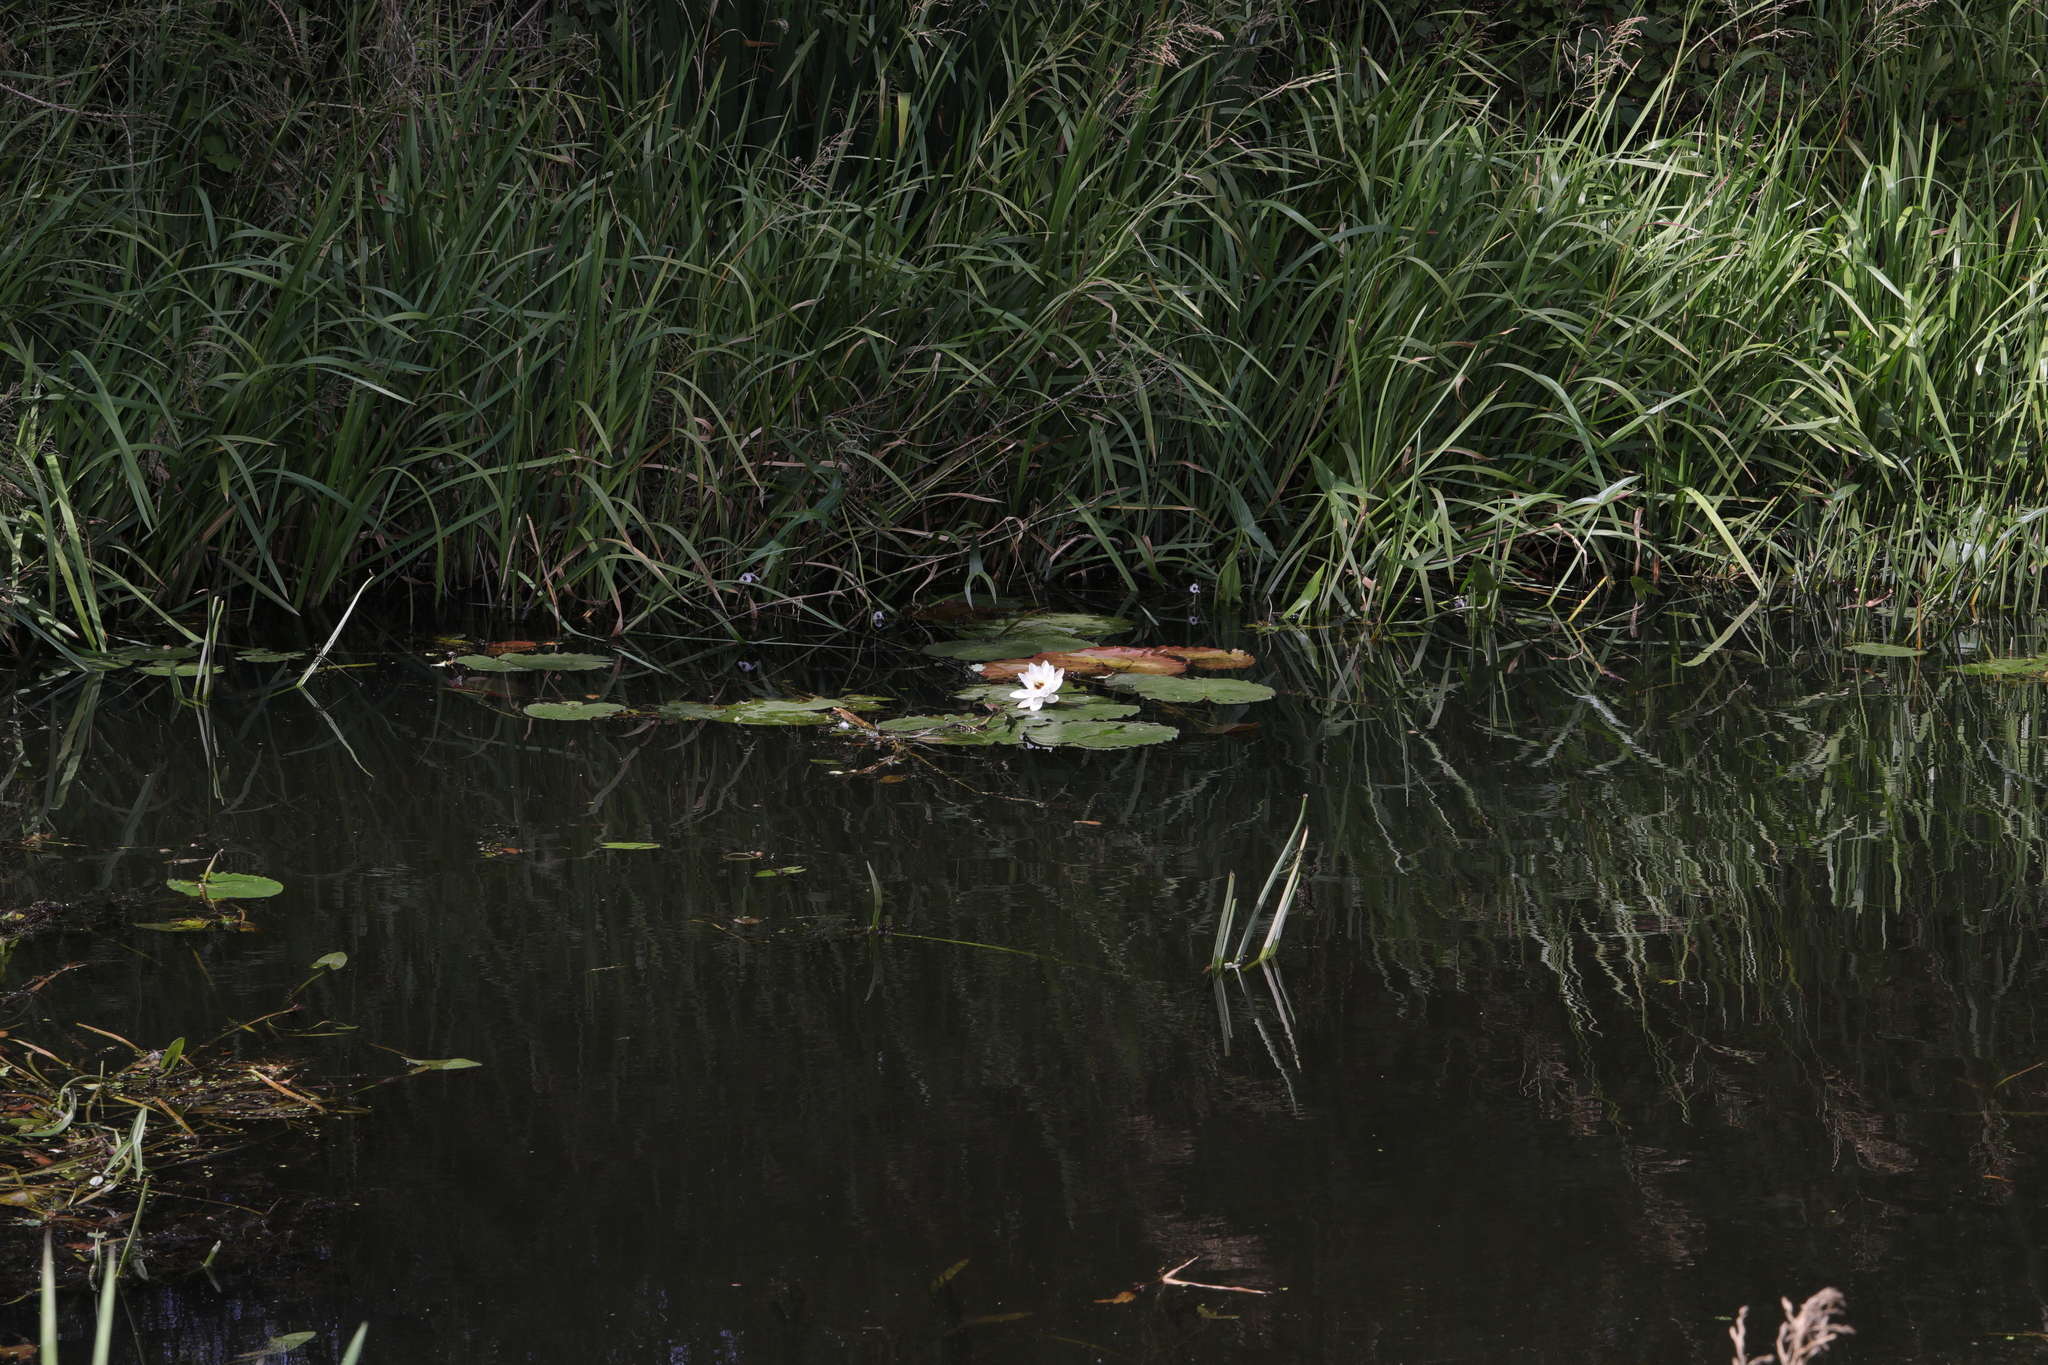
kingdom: Plantae
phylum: Tracheophyta
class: Magnoliopsida
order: Nymphaeales
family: Nymphaeaceae
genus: Nymphaea
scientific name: Nymphaea alba
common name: White water-lily
